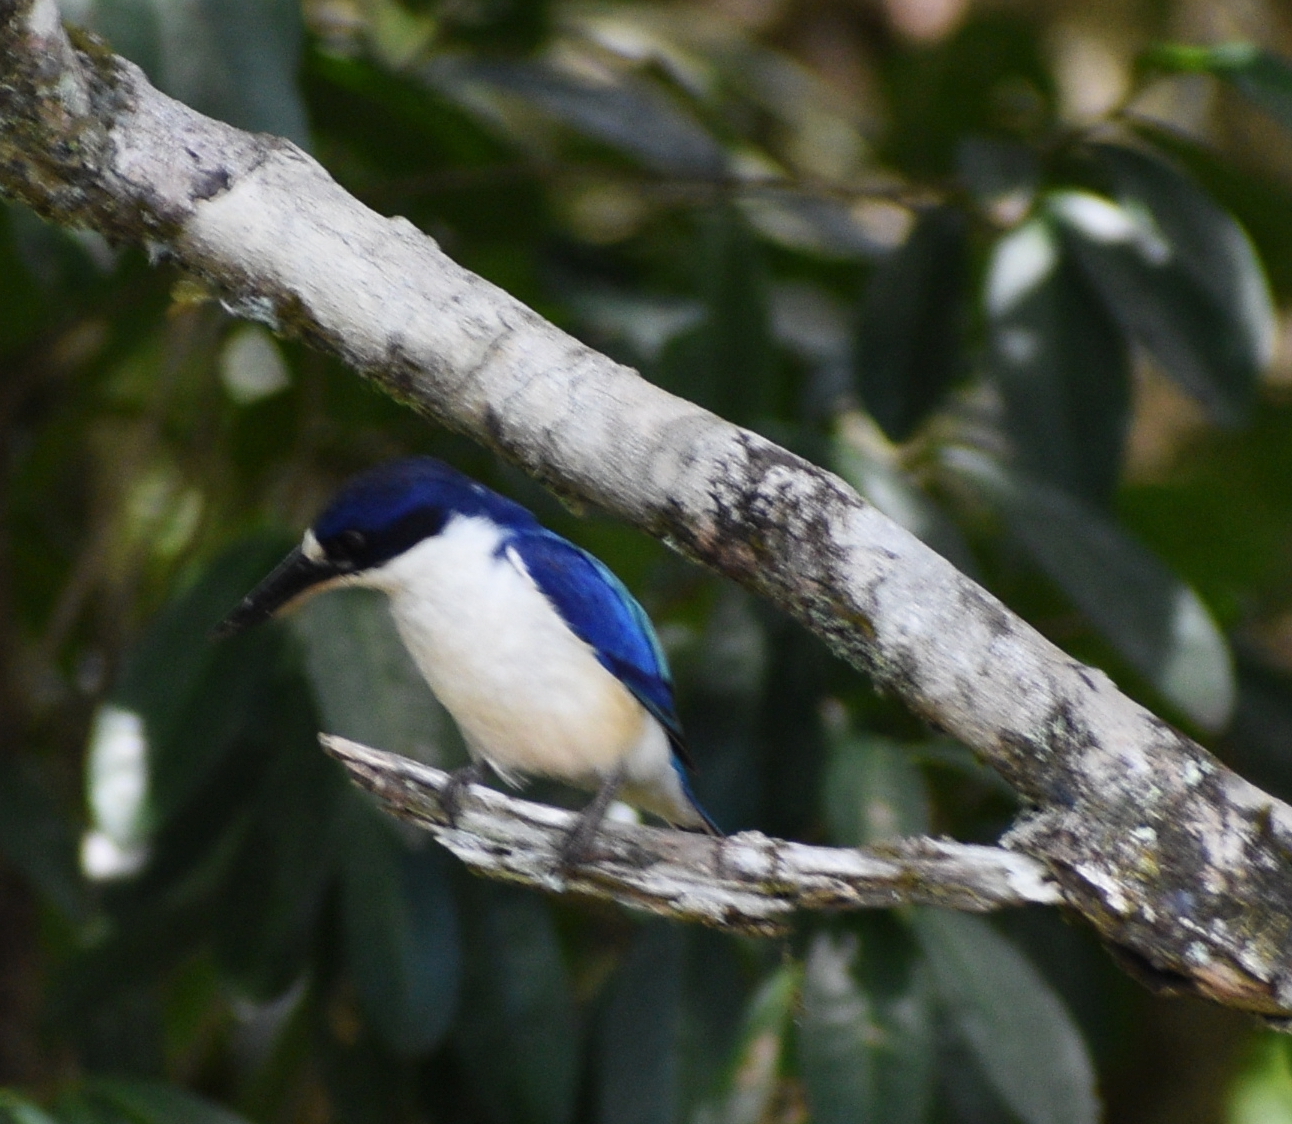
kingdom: Animalia
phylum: Chordata
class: Aves
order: Coraciiformes
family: Alcedinidae
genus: Todiramphus
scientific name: Todiramphus macleayii
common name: Forest kingfisher
